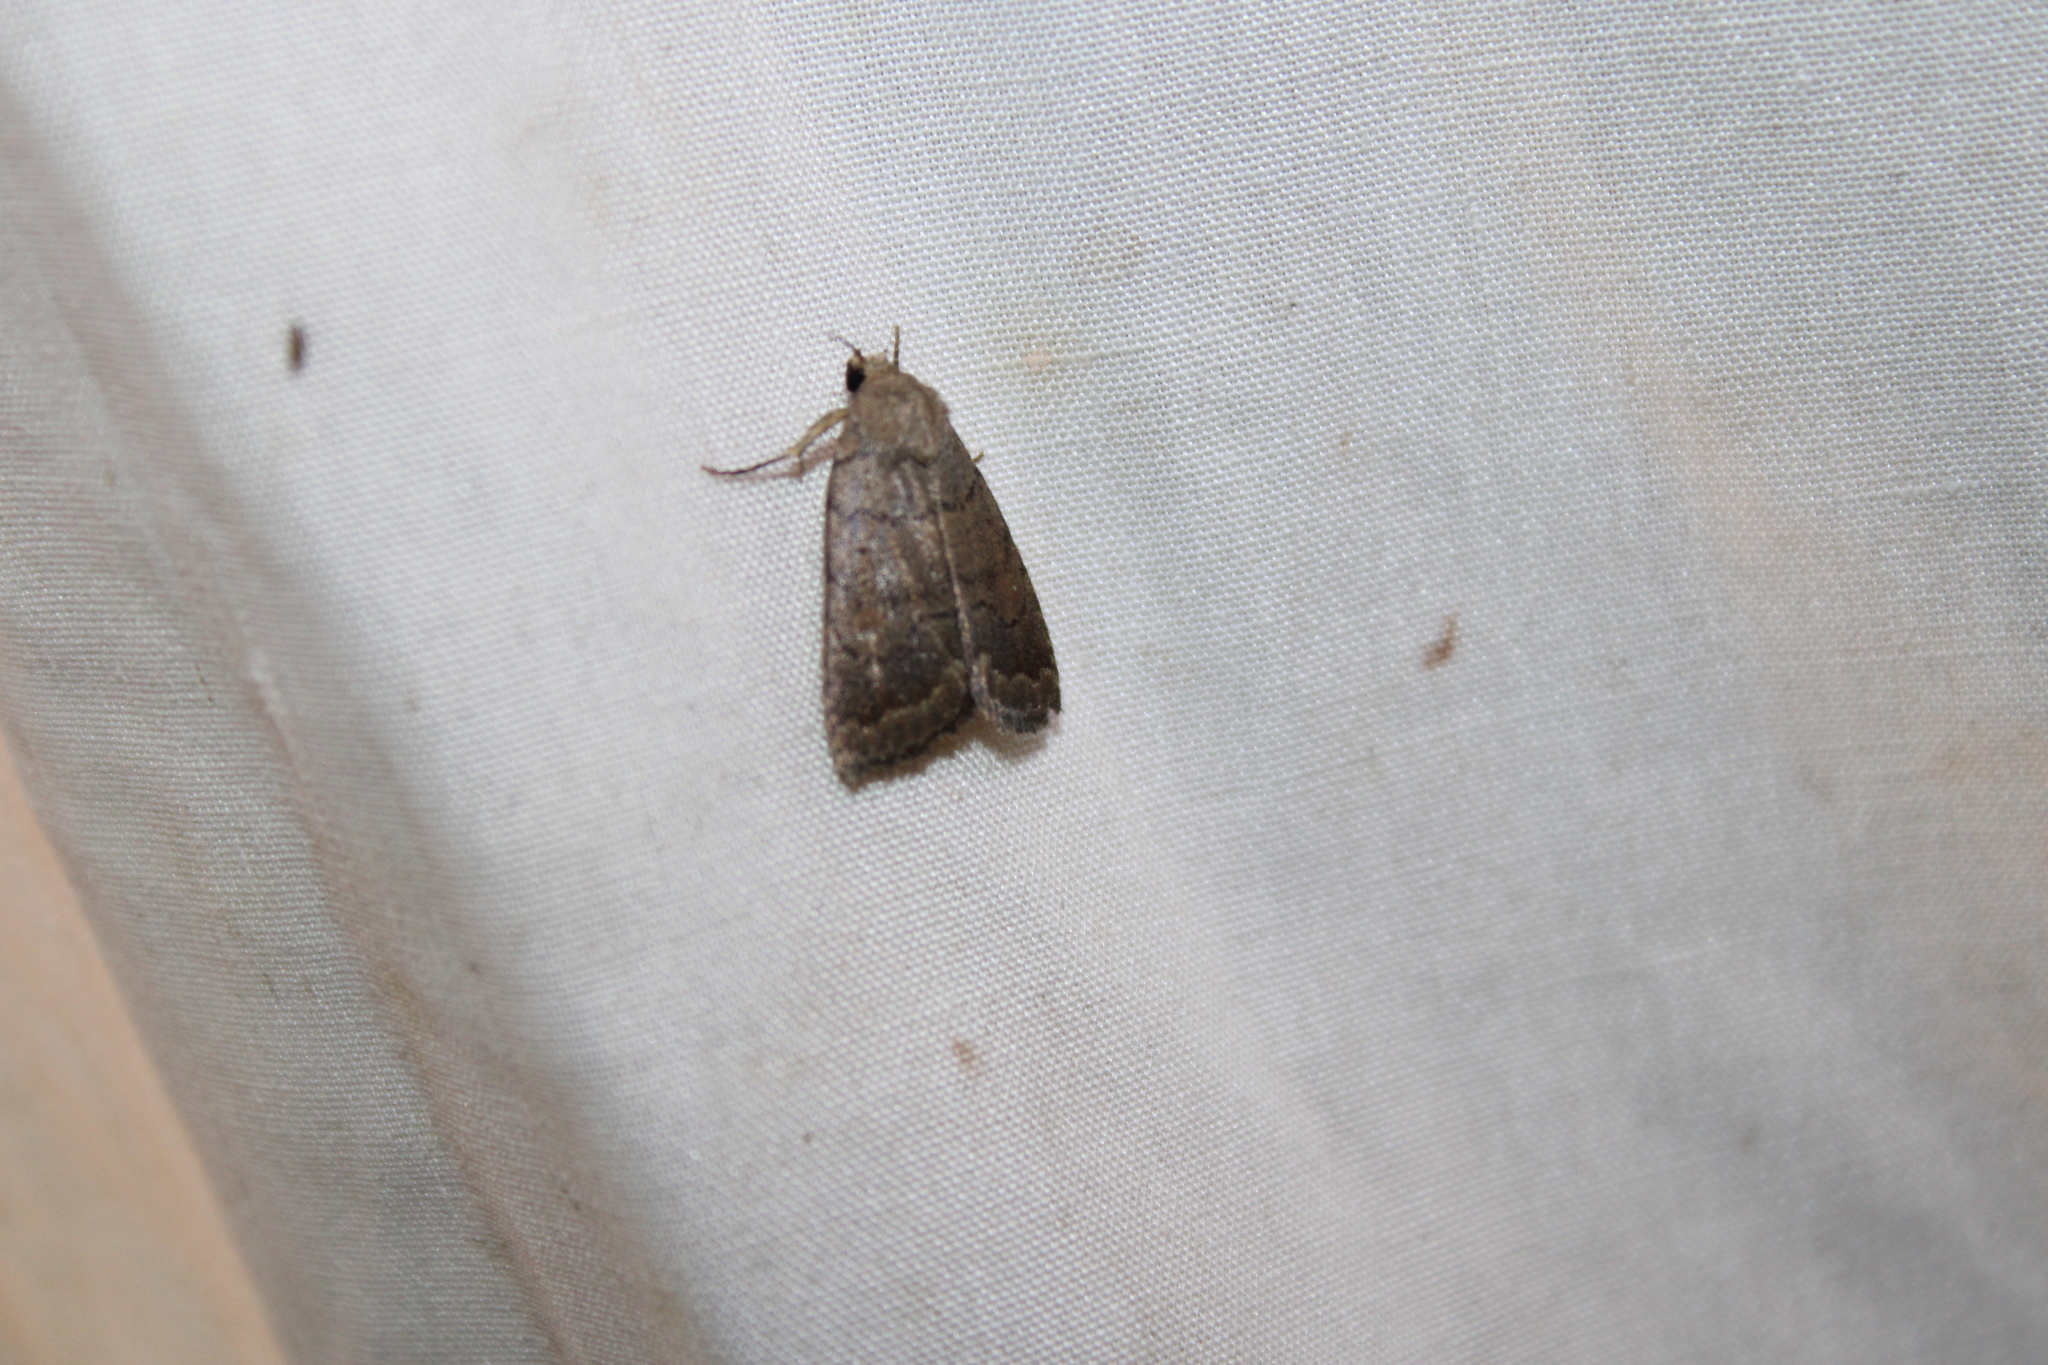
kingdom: Animalia
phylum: Arthropoda
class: Insecta
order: Lepidoptera
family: Noctuidae
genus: Athetis
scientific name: Athetis tarda
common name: Slowpoke moth
